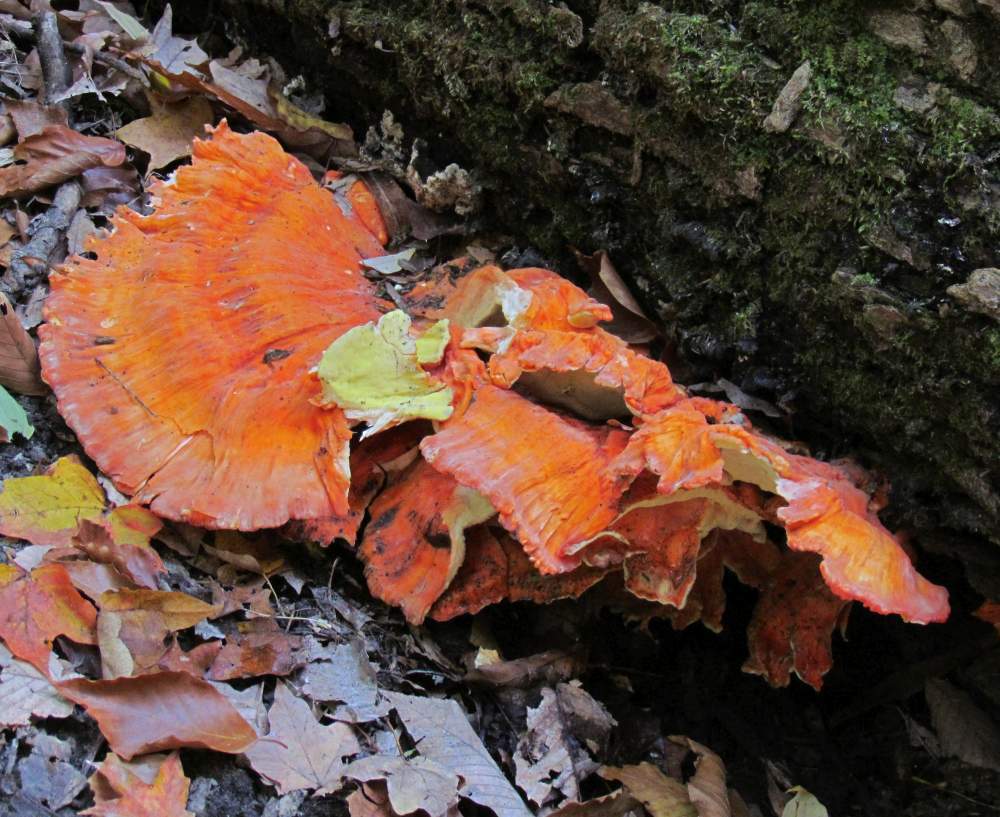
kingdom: Fungi
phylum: Basidiomycota
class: Agaricomycetes
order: Polyporales
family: Laetiporaceae
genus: Laetiporus
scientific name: Laetiporus sulphureus
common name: Chicken of the woods
